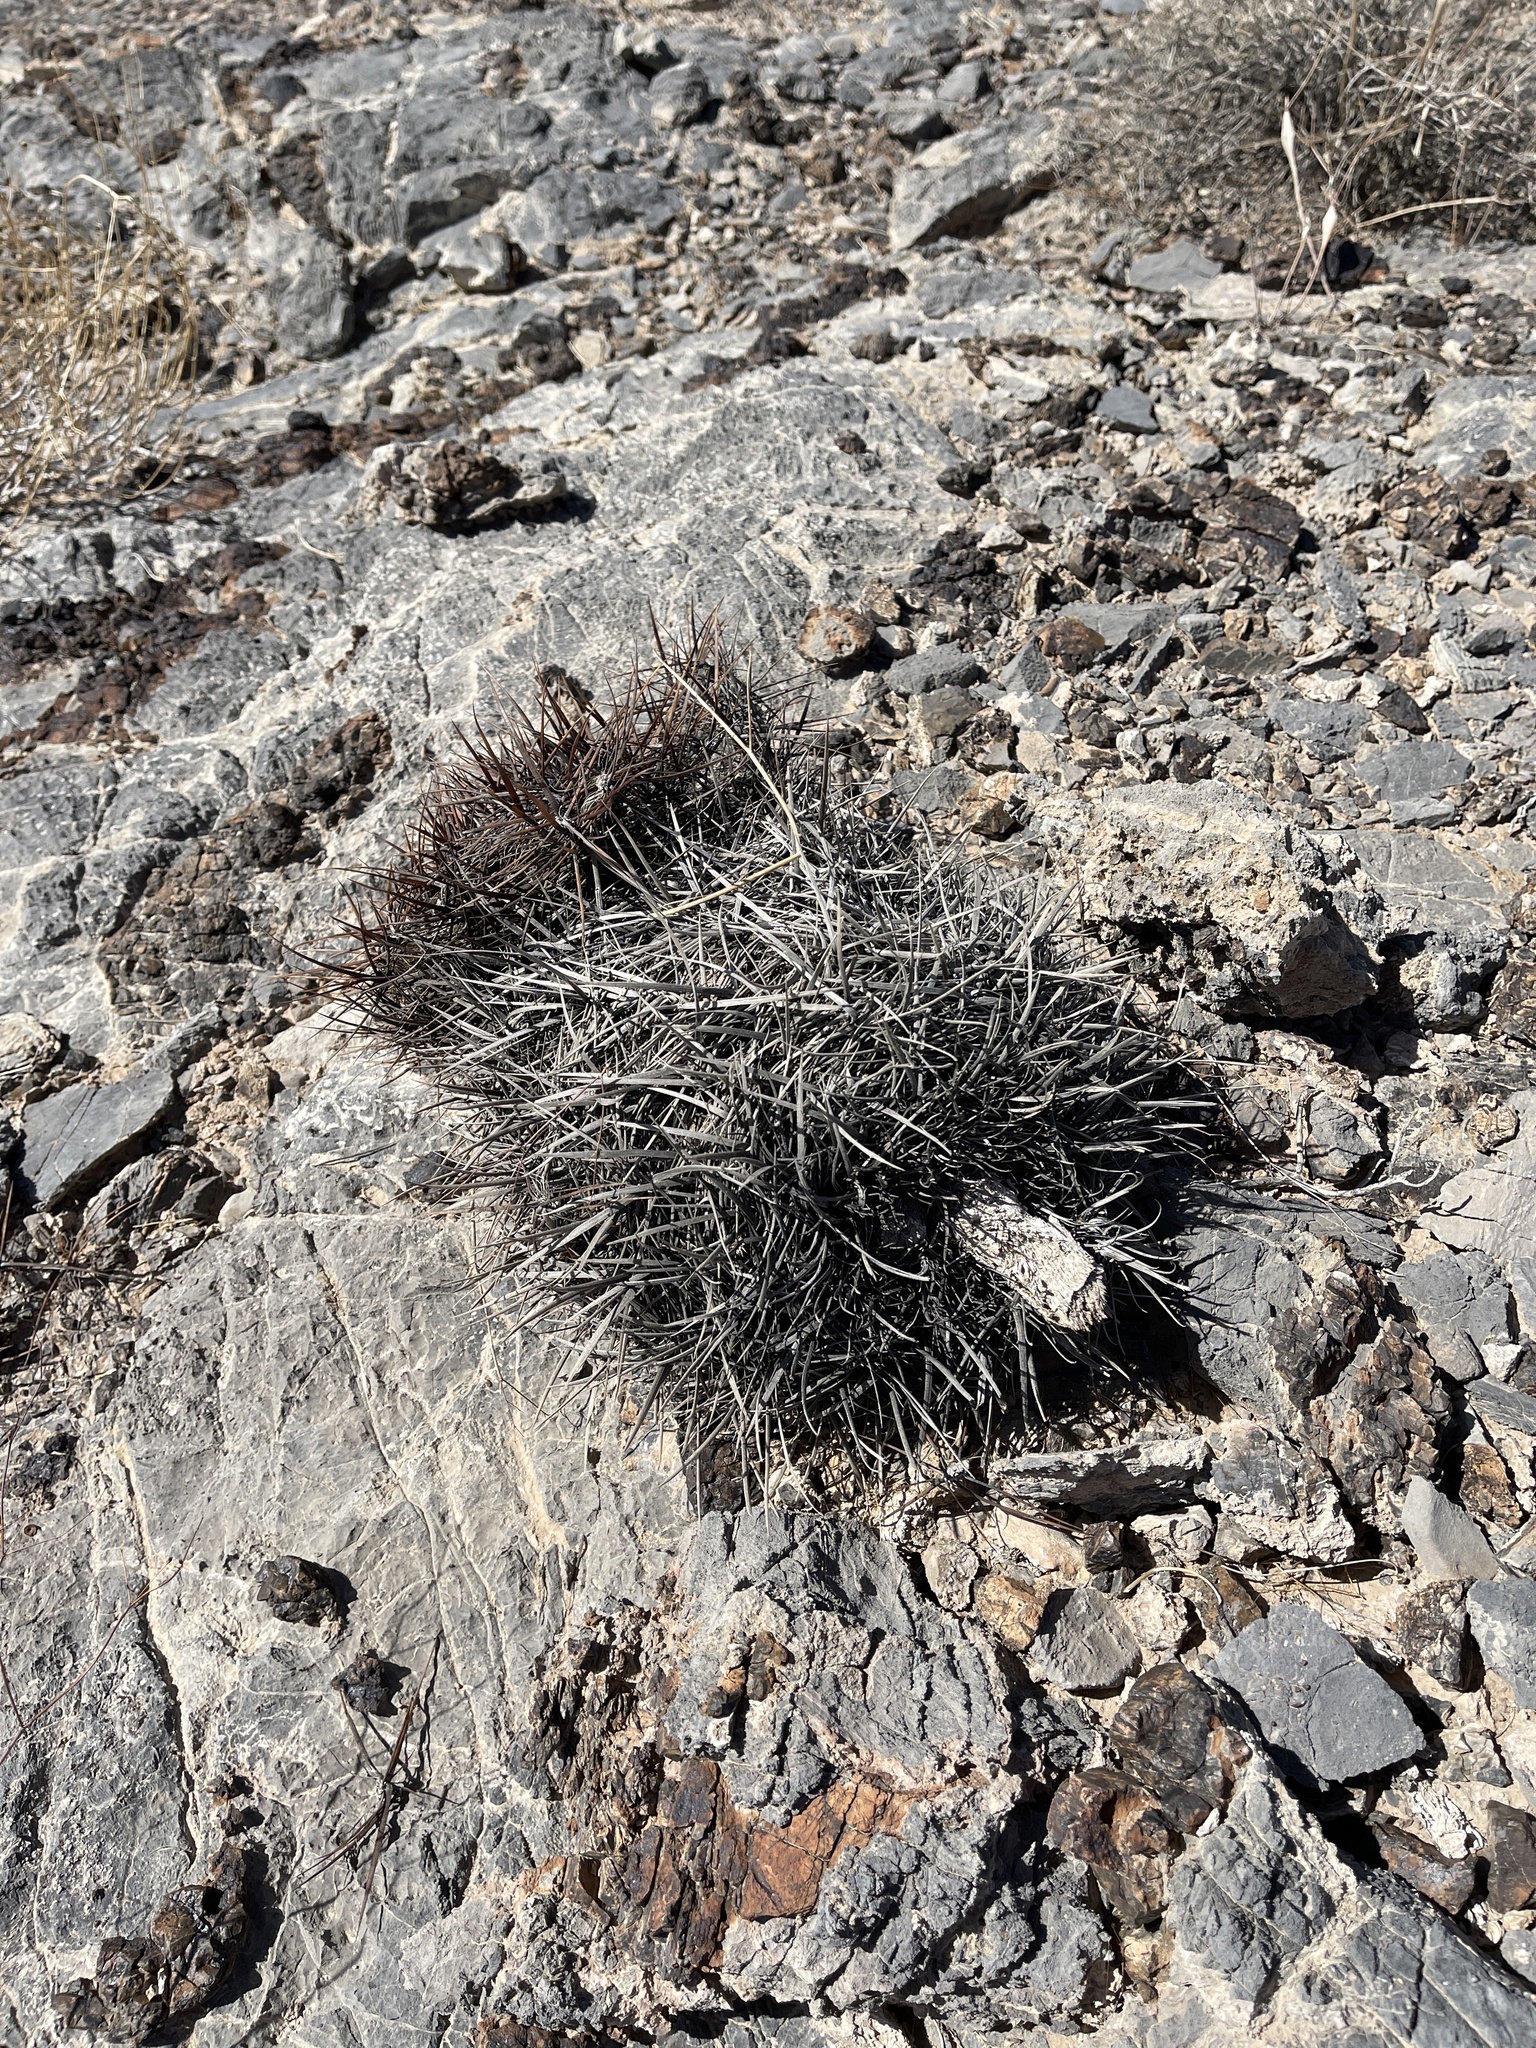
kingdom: Plantae
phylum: Tracheophyta
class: Magnoliopsida
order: Caryophyllales
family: Cactaceae
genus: Ferocactus
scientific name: Ferocactus cylindraceus
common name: California barrel cactus
